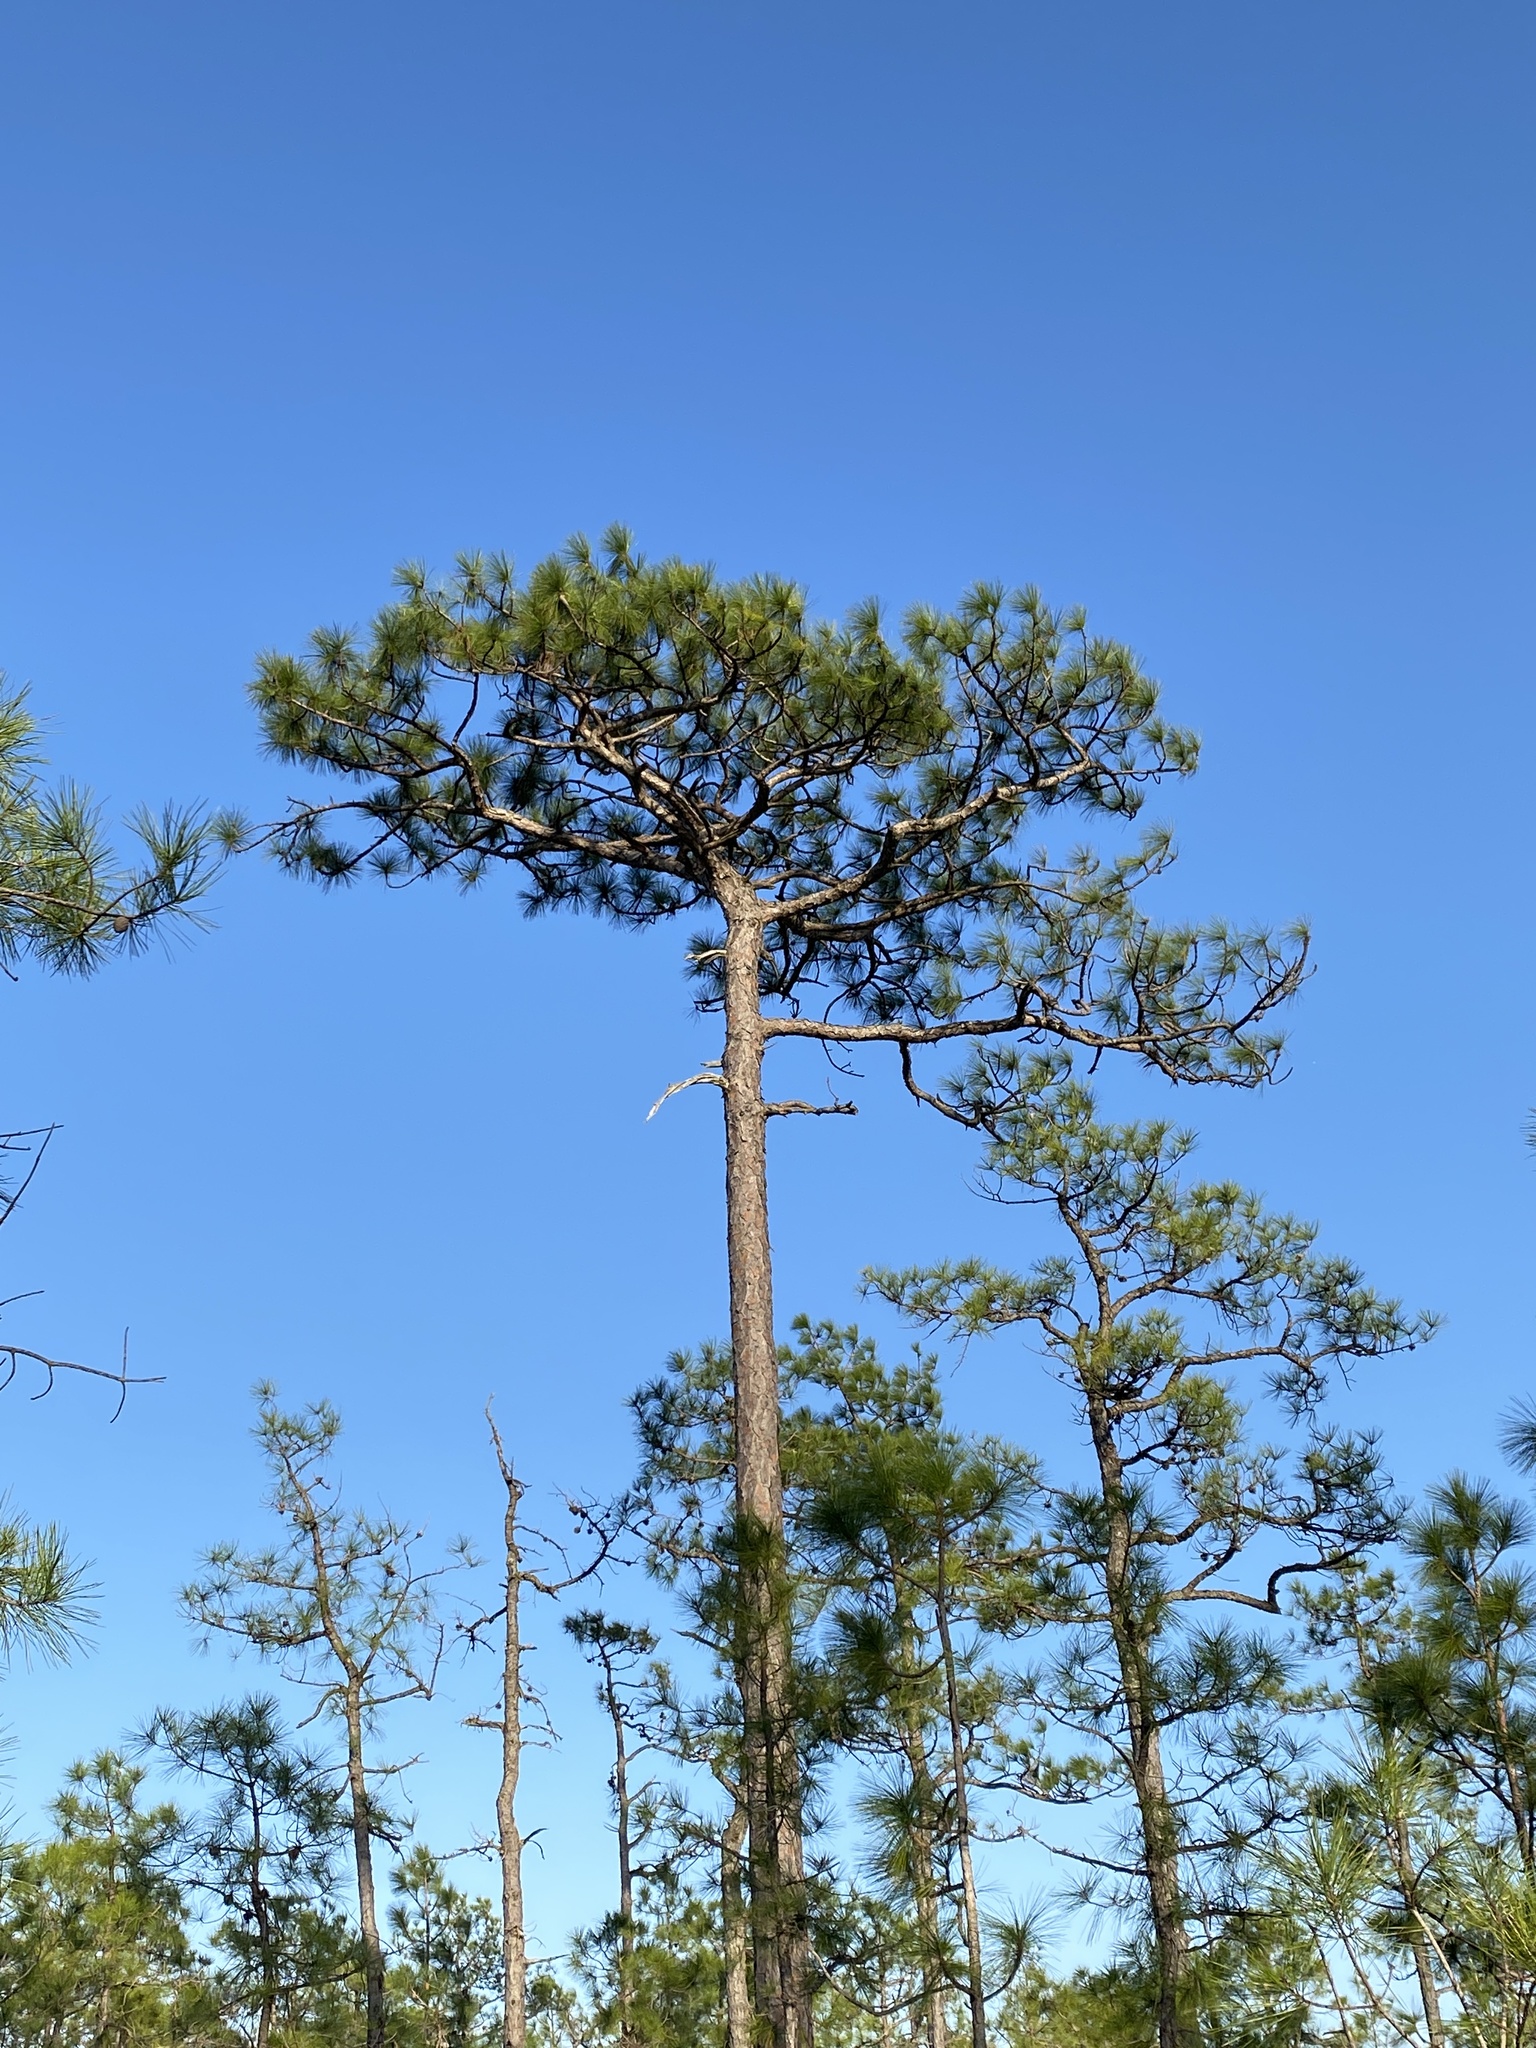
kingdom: Plantae
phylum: Tracheophyta
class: Pinopsida
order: Pinales
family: Pinaceae
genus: Pinus
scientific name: Pinus palustris
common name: Longleaf pine
